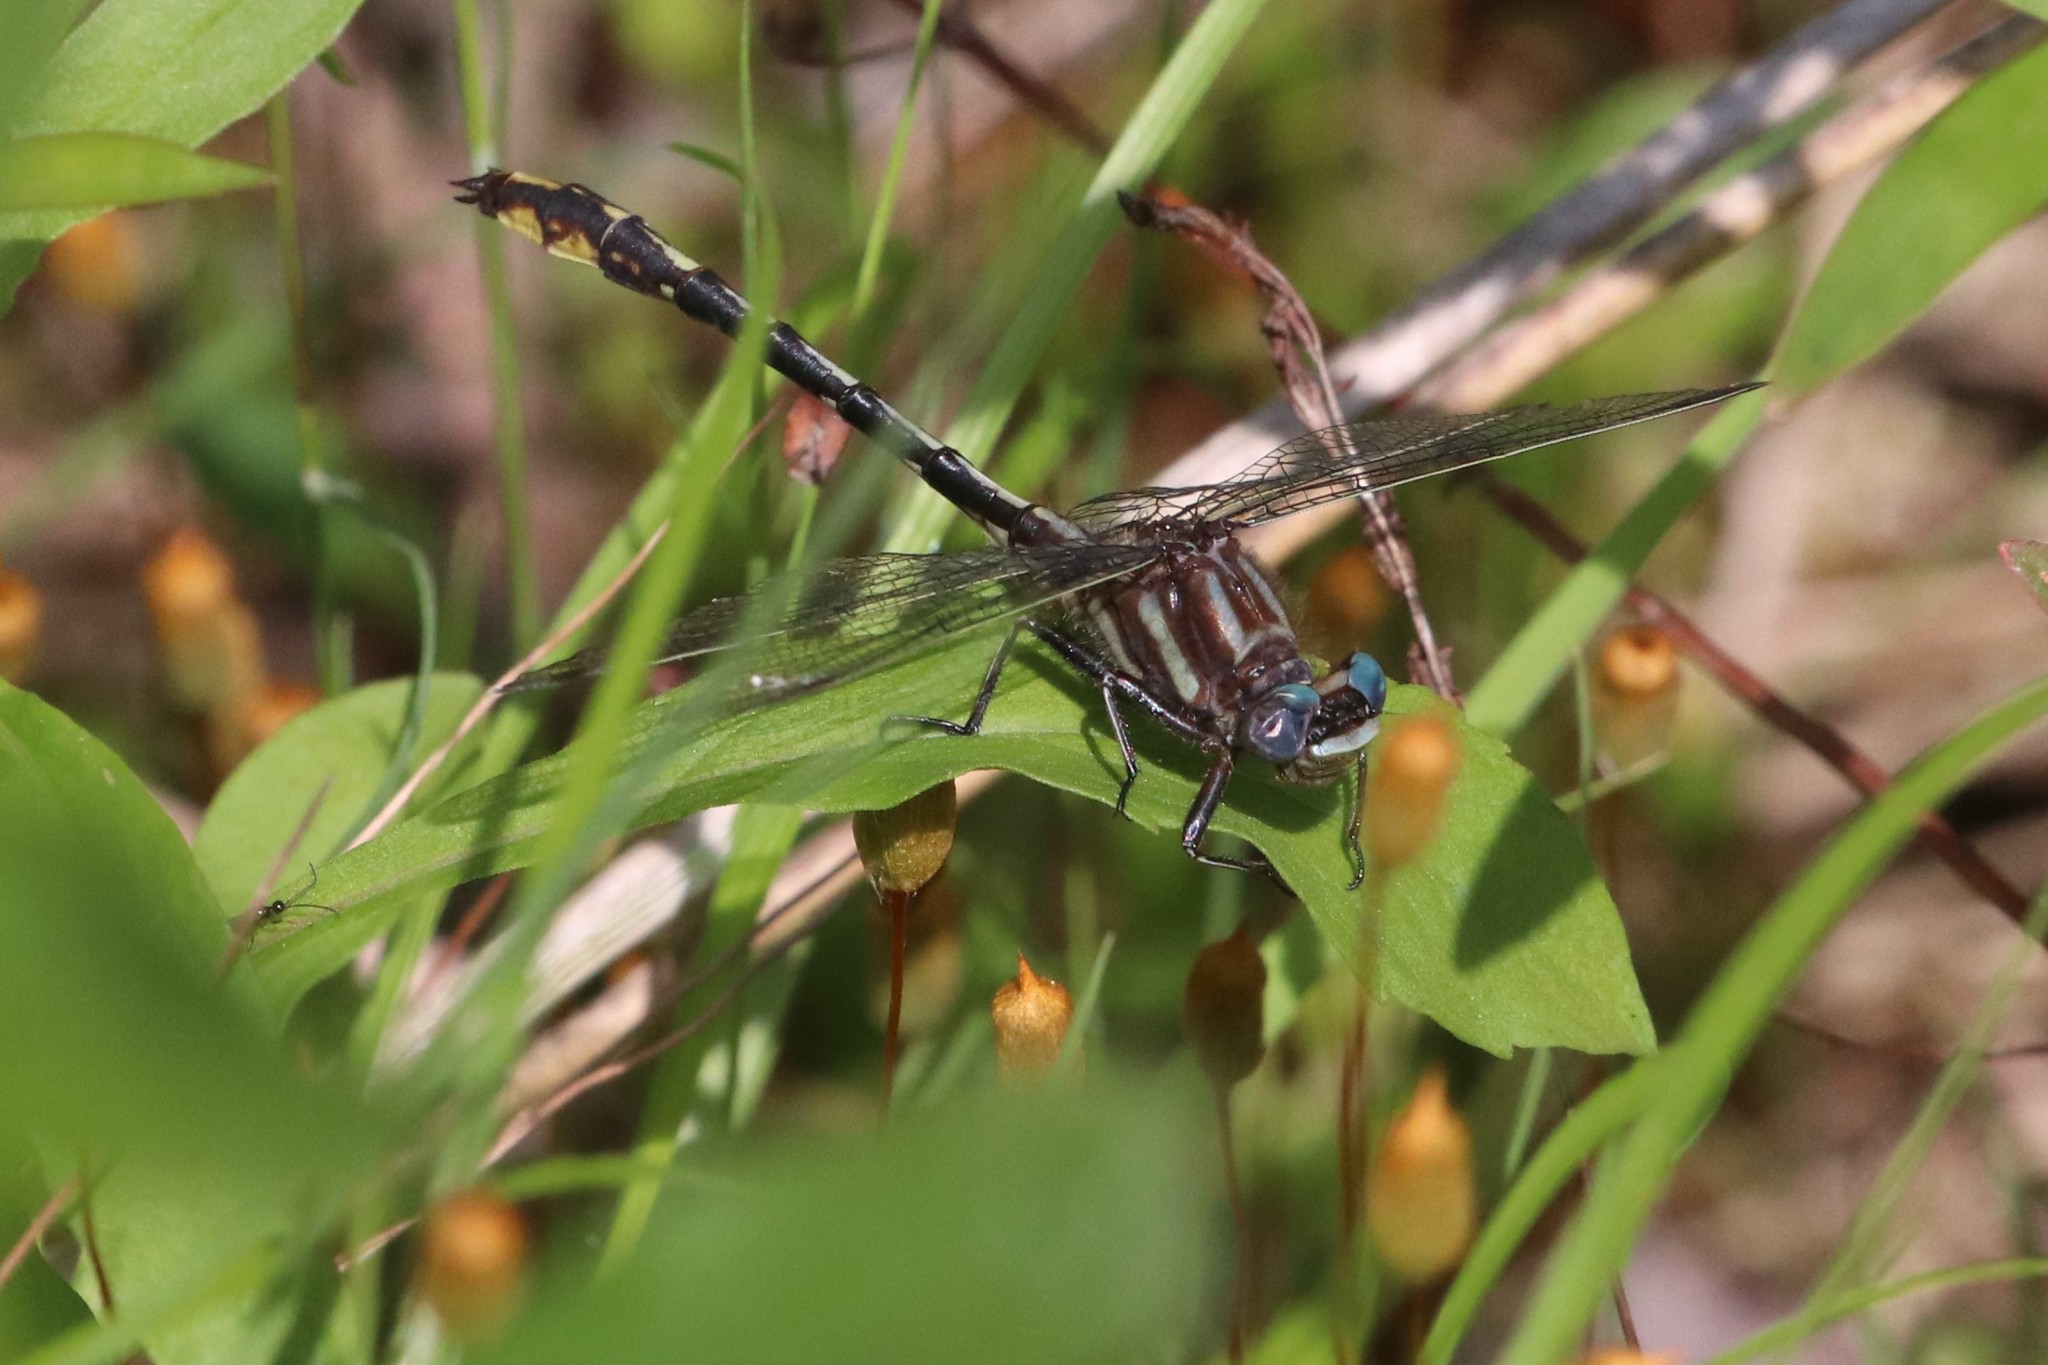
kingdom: Animalia
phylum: Arthropoda
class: Insecta
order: Odonata
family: Gomphidae
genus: Phanogomphus
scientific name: Phanogomphus exilis
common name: Lancet clubtail
